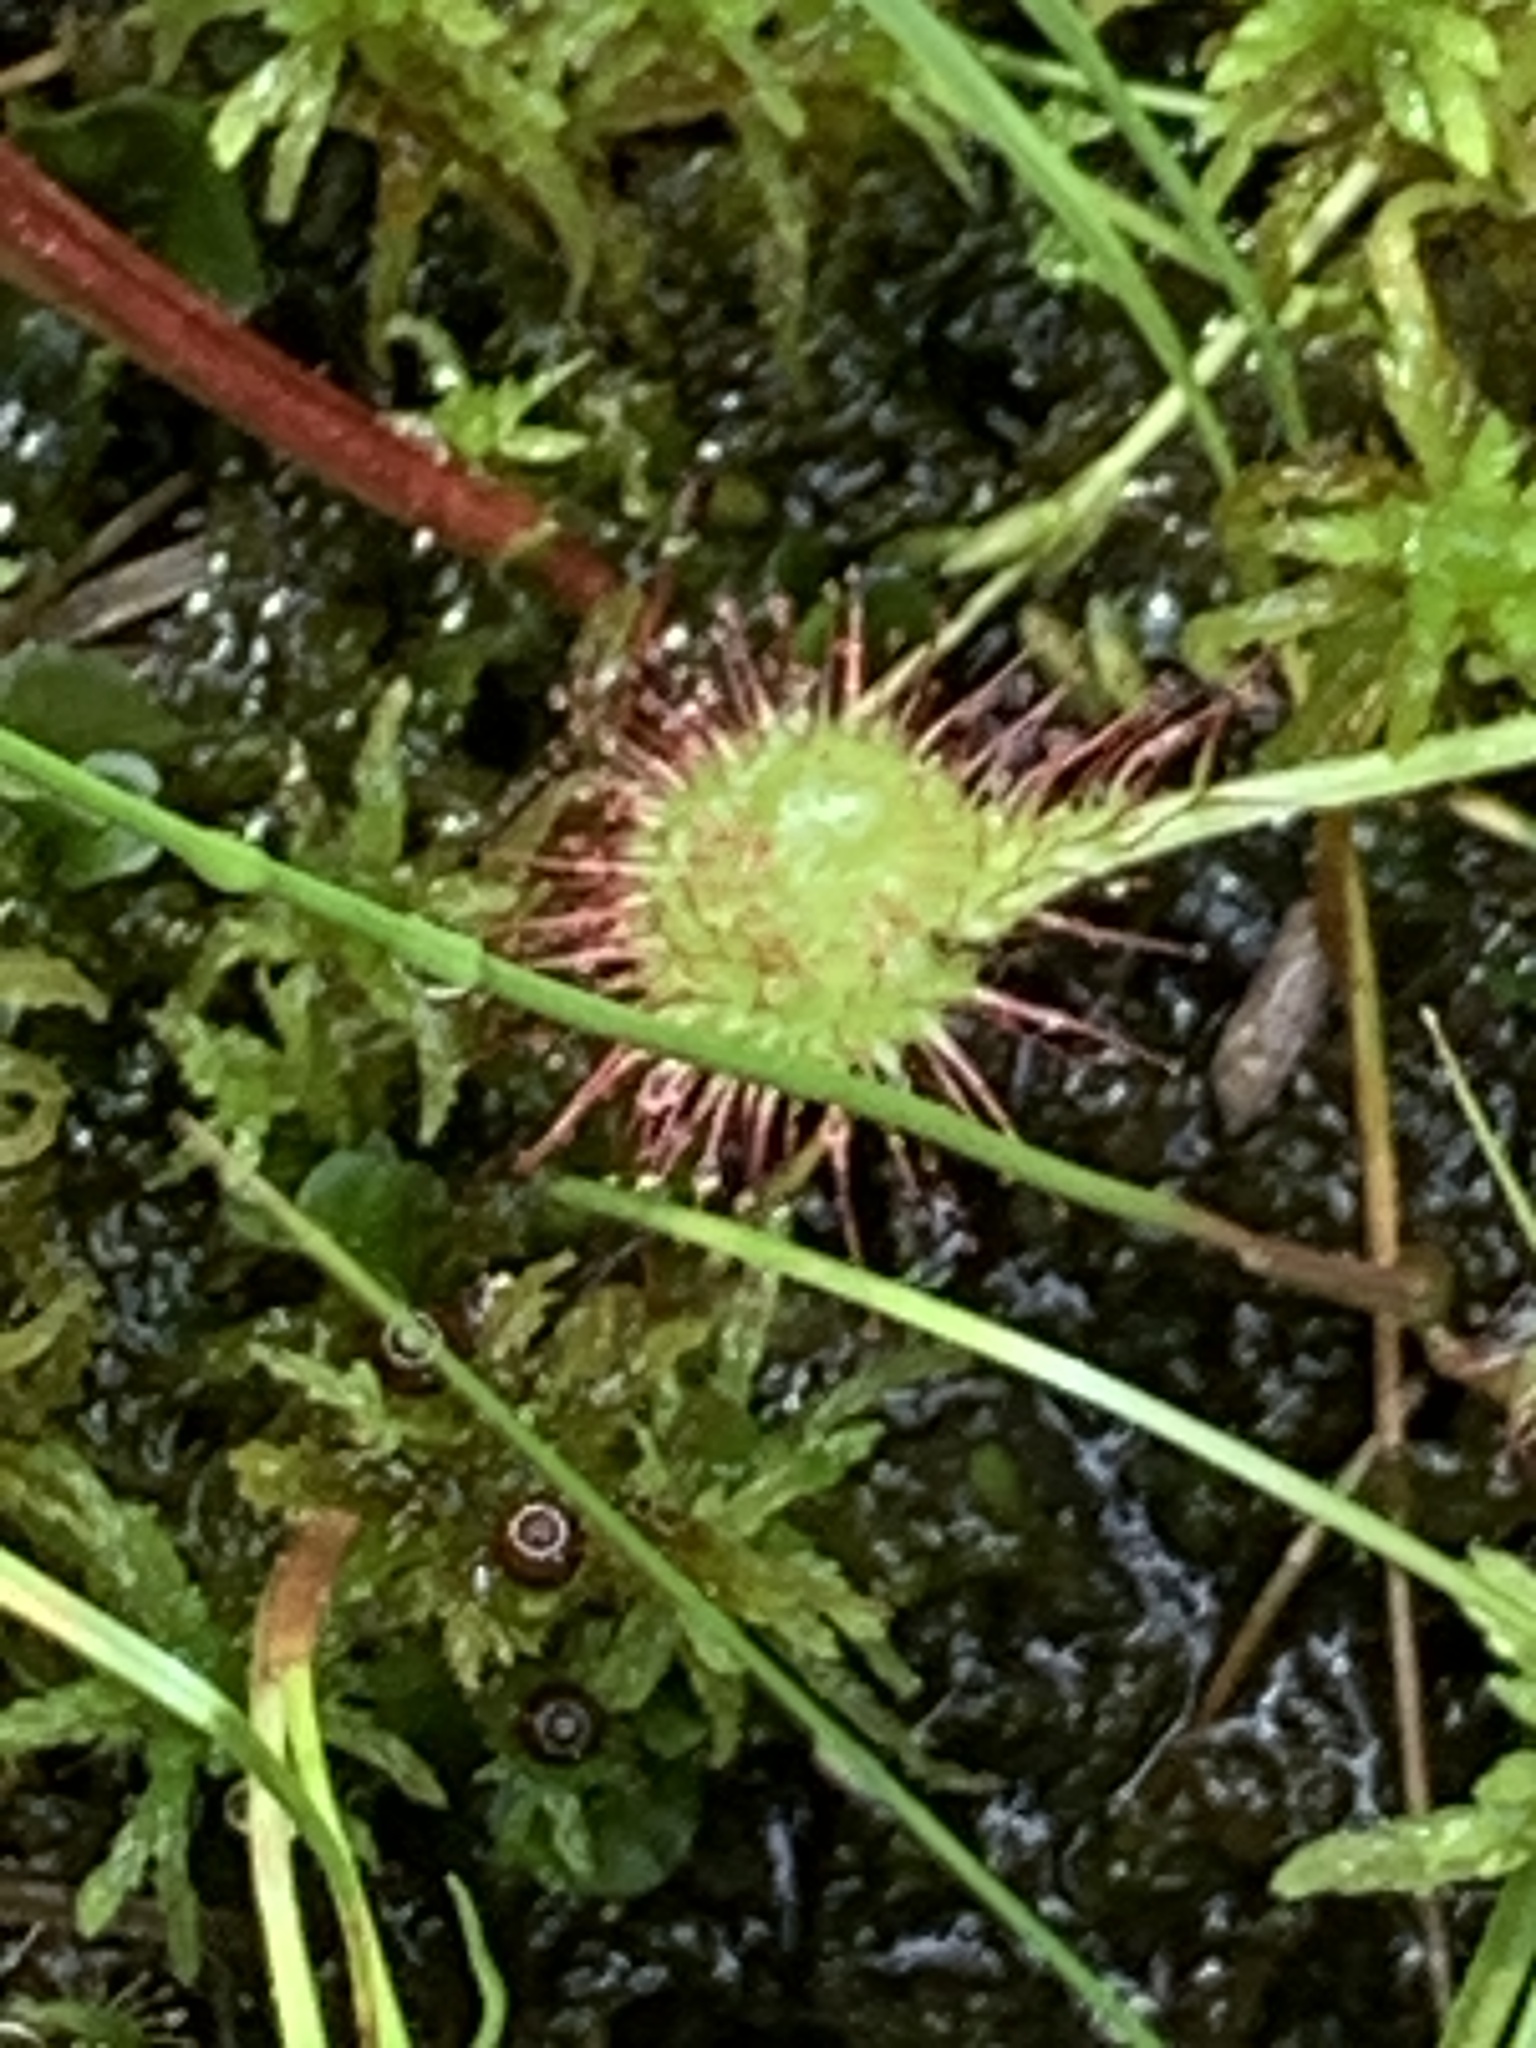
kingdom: Plantae
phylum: Tracheophyta
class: Magnoliopsida
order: Caryophyllales
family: Droseraceae
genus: Drosera
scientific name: Drosera rotundifolia
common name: Round-leaved sundew
